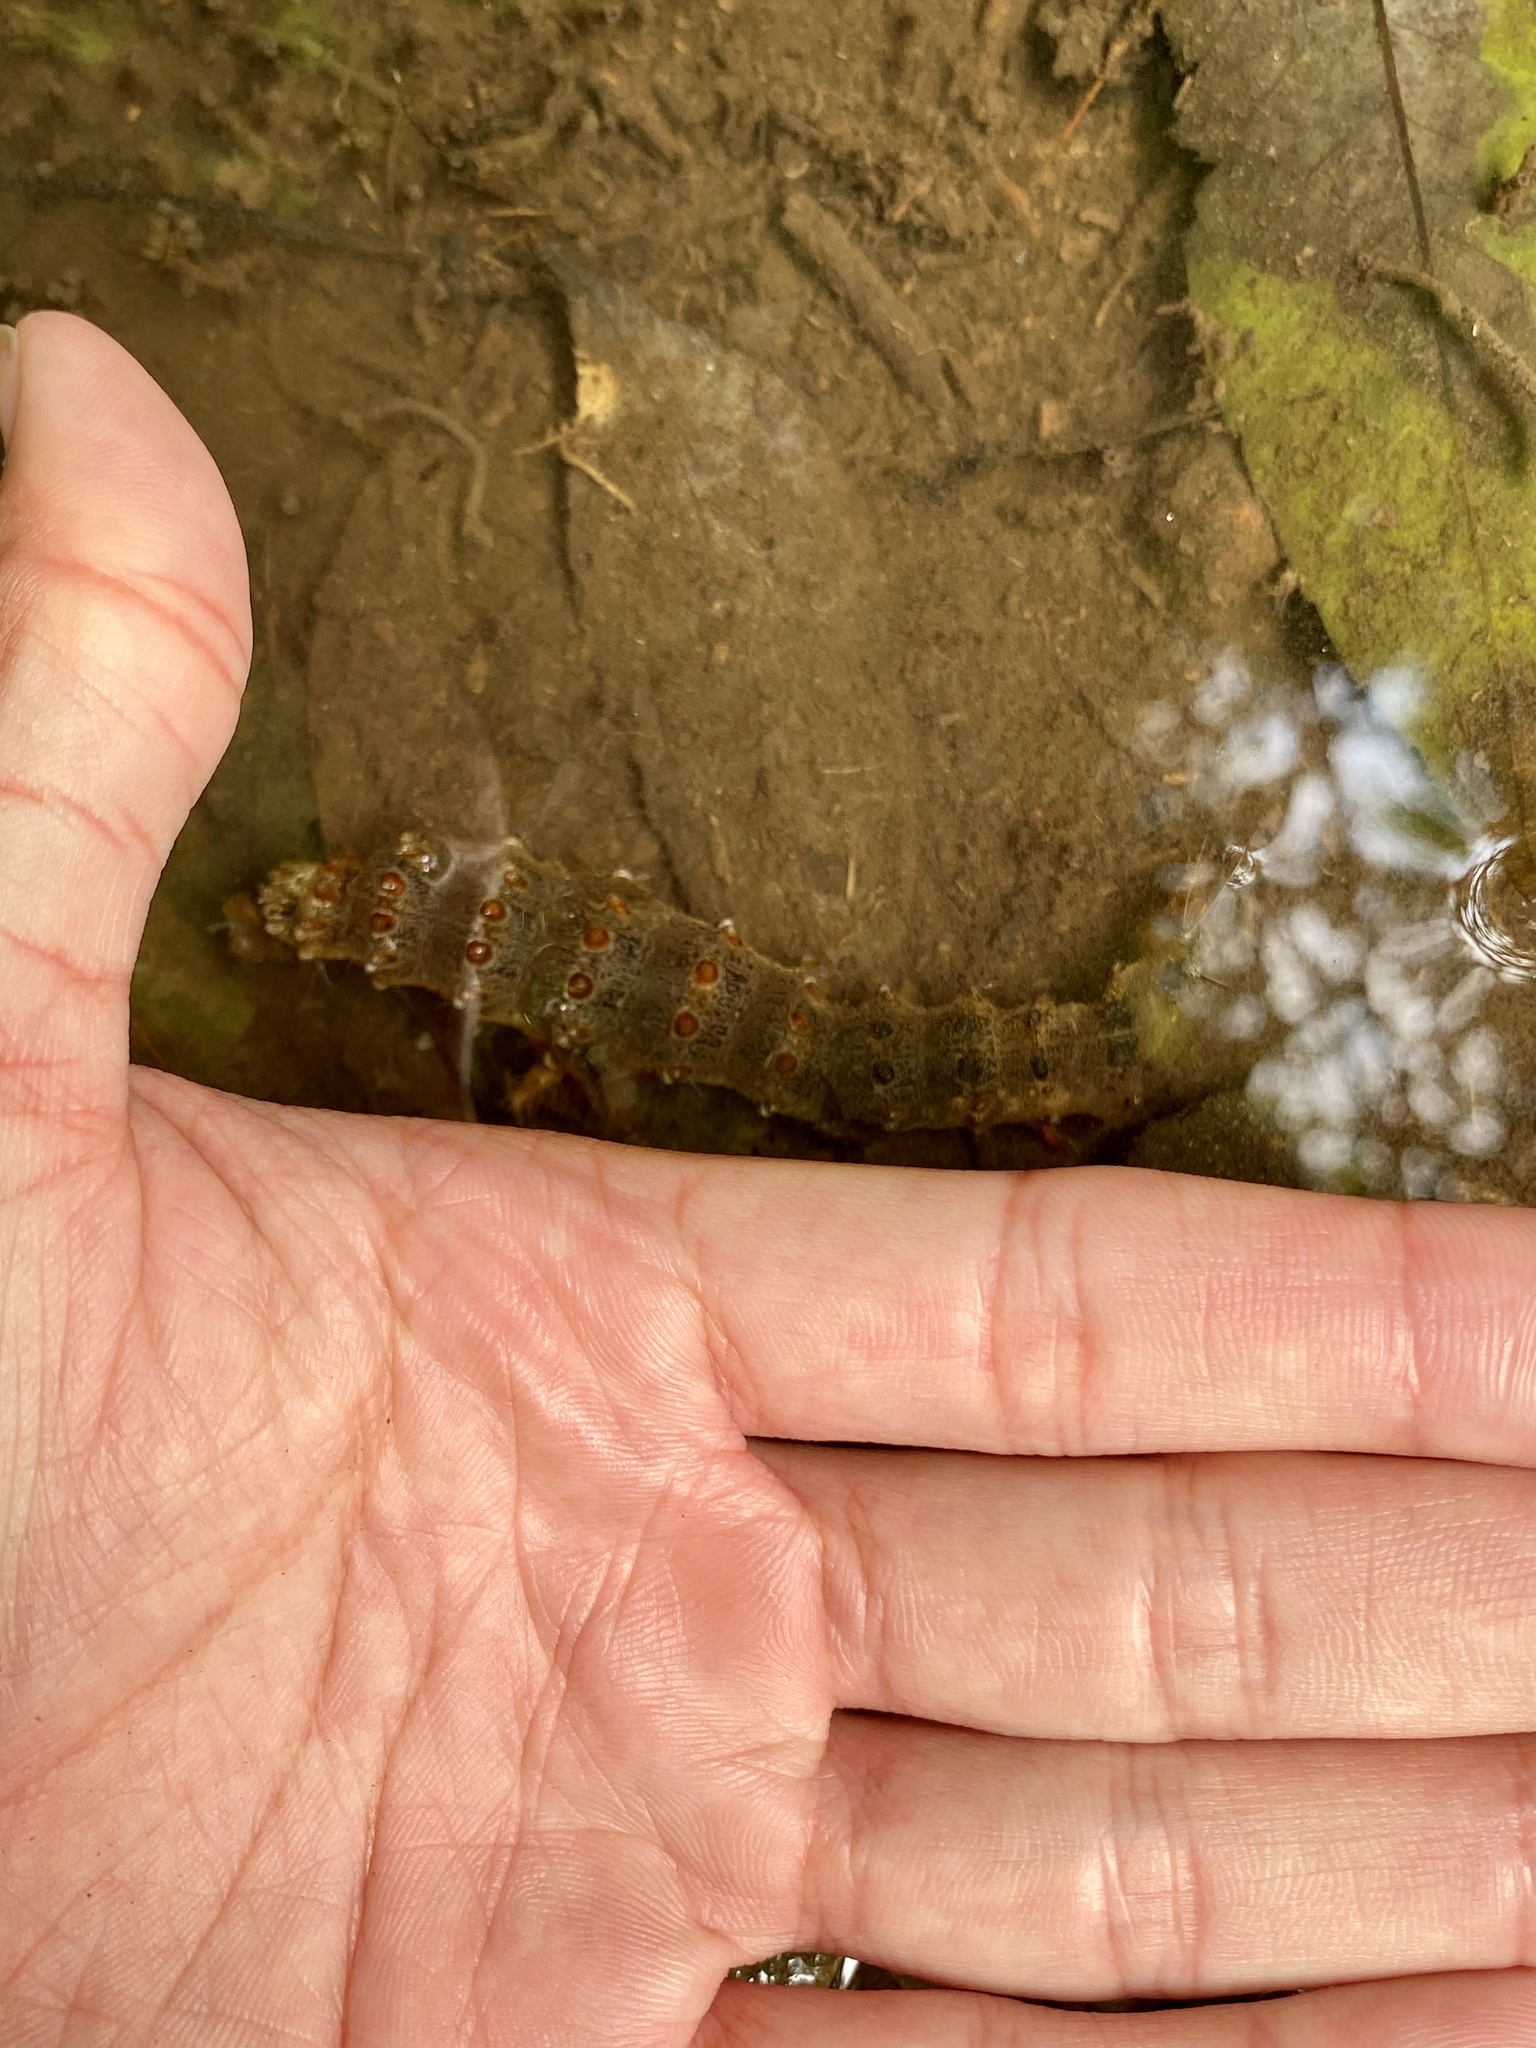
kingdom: Animalia
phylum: Arthropoda
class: Insecta
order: Lepidoptera
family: Erebidae
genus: Lymantria
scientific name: Lymantria dispar
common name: Gypsy moth
